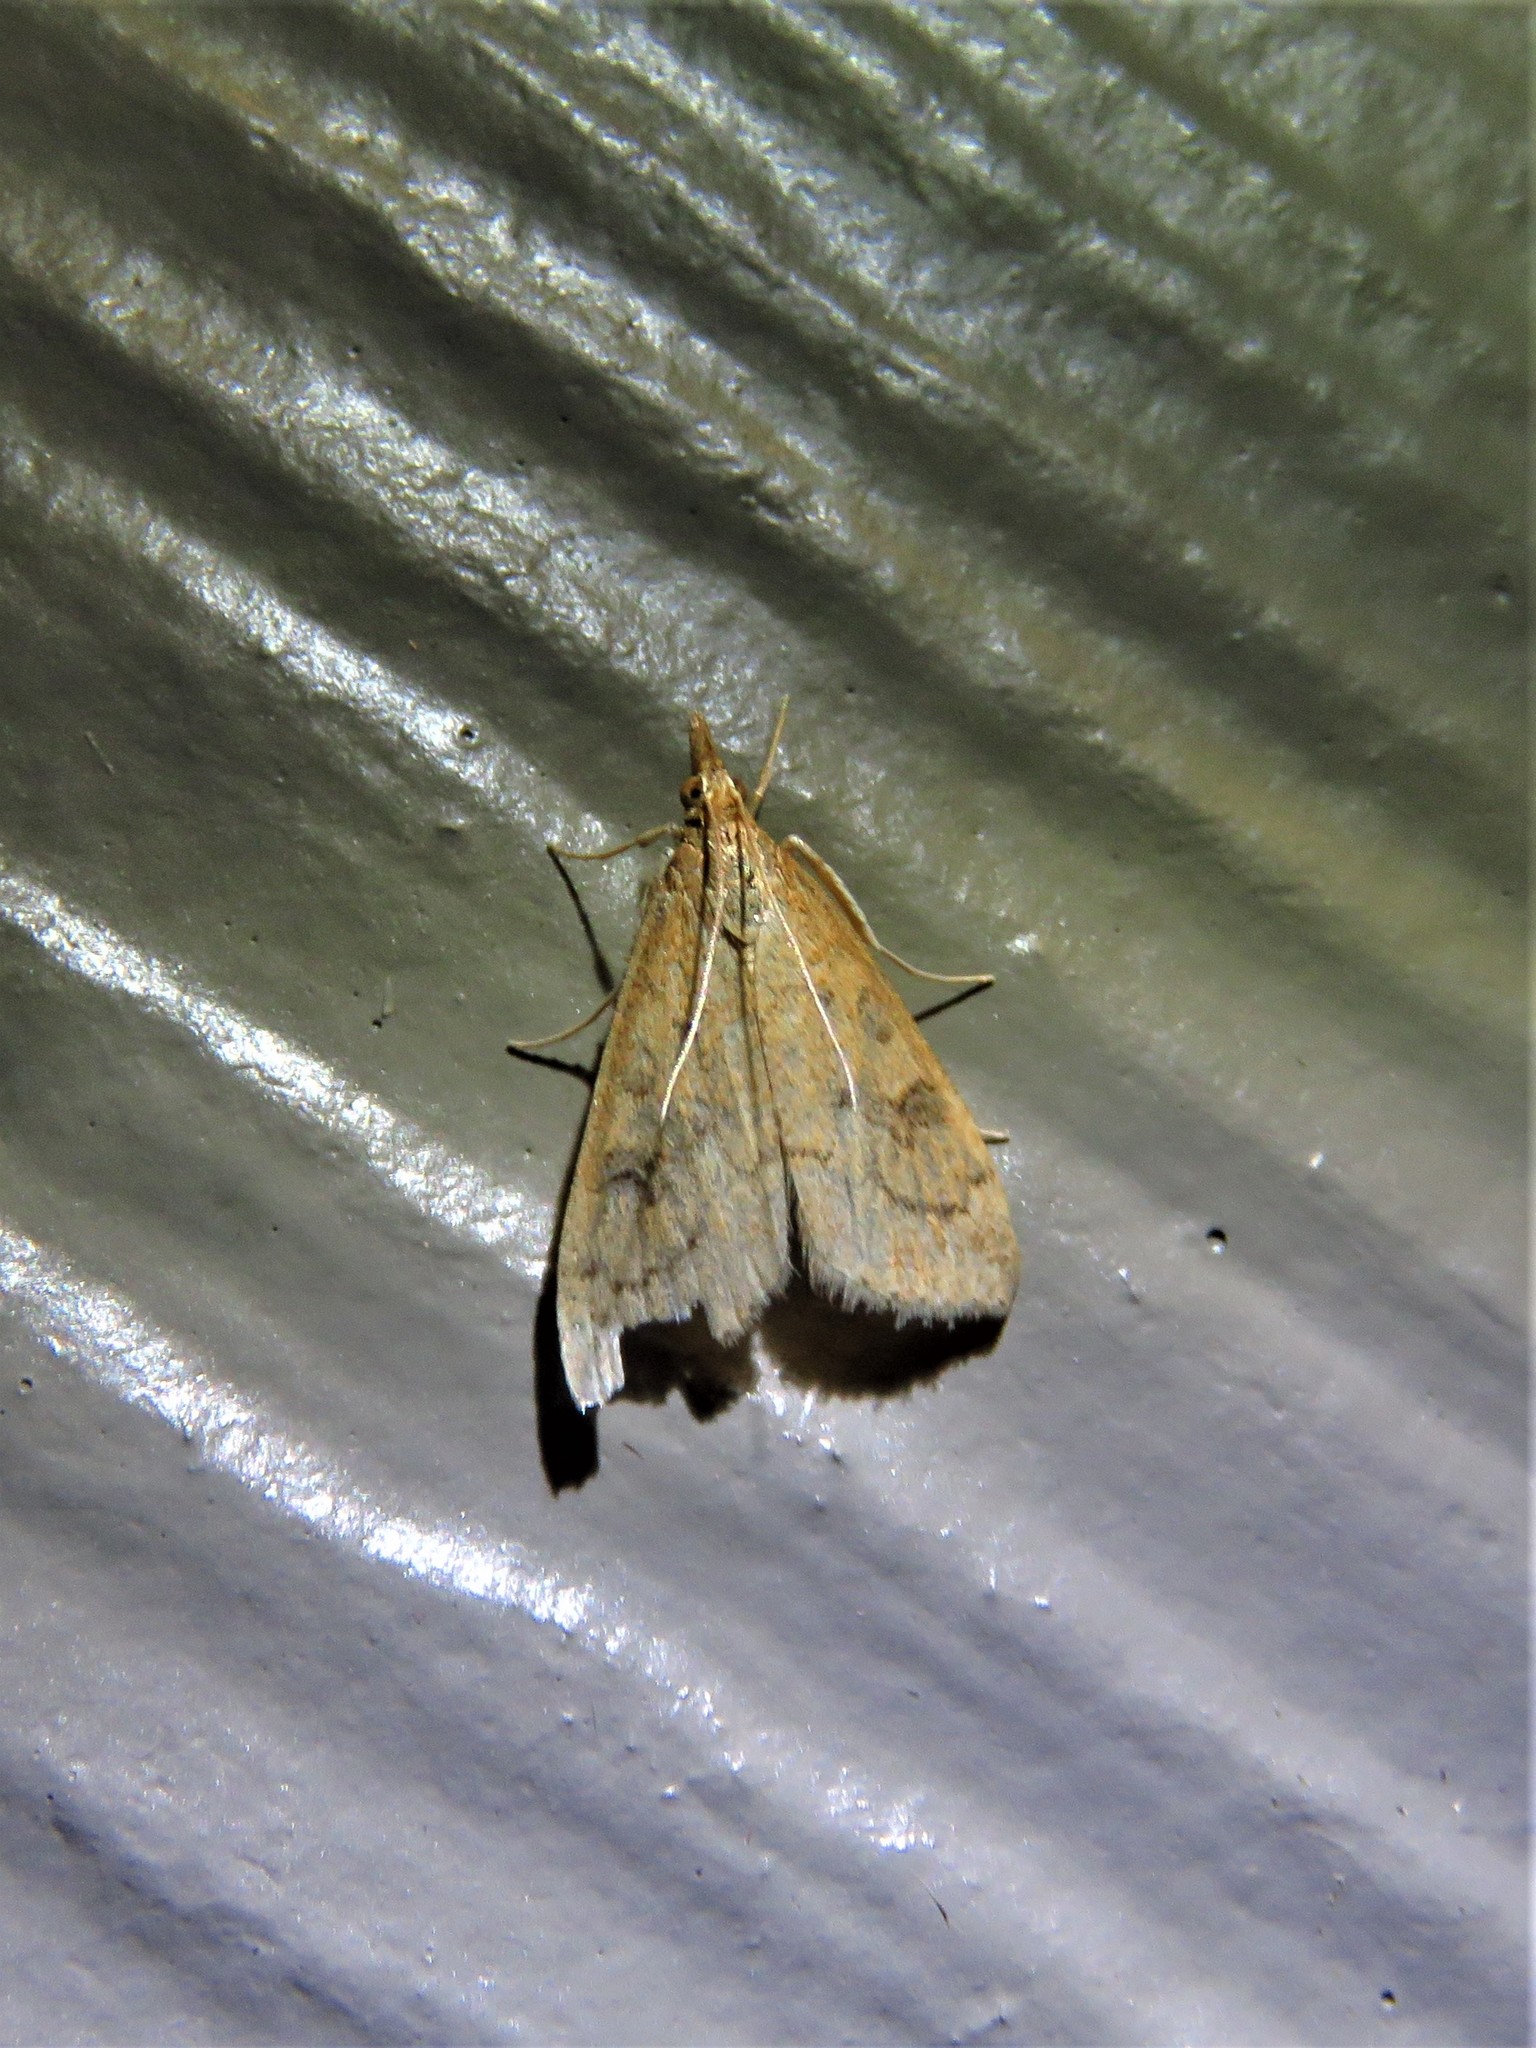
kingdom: Animalia
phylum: Arthropoda
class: Insecta
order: Lepidoptera
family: Crambidae
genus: Udea
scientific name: Udea rubigalis
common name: Celery leaftier moth
